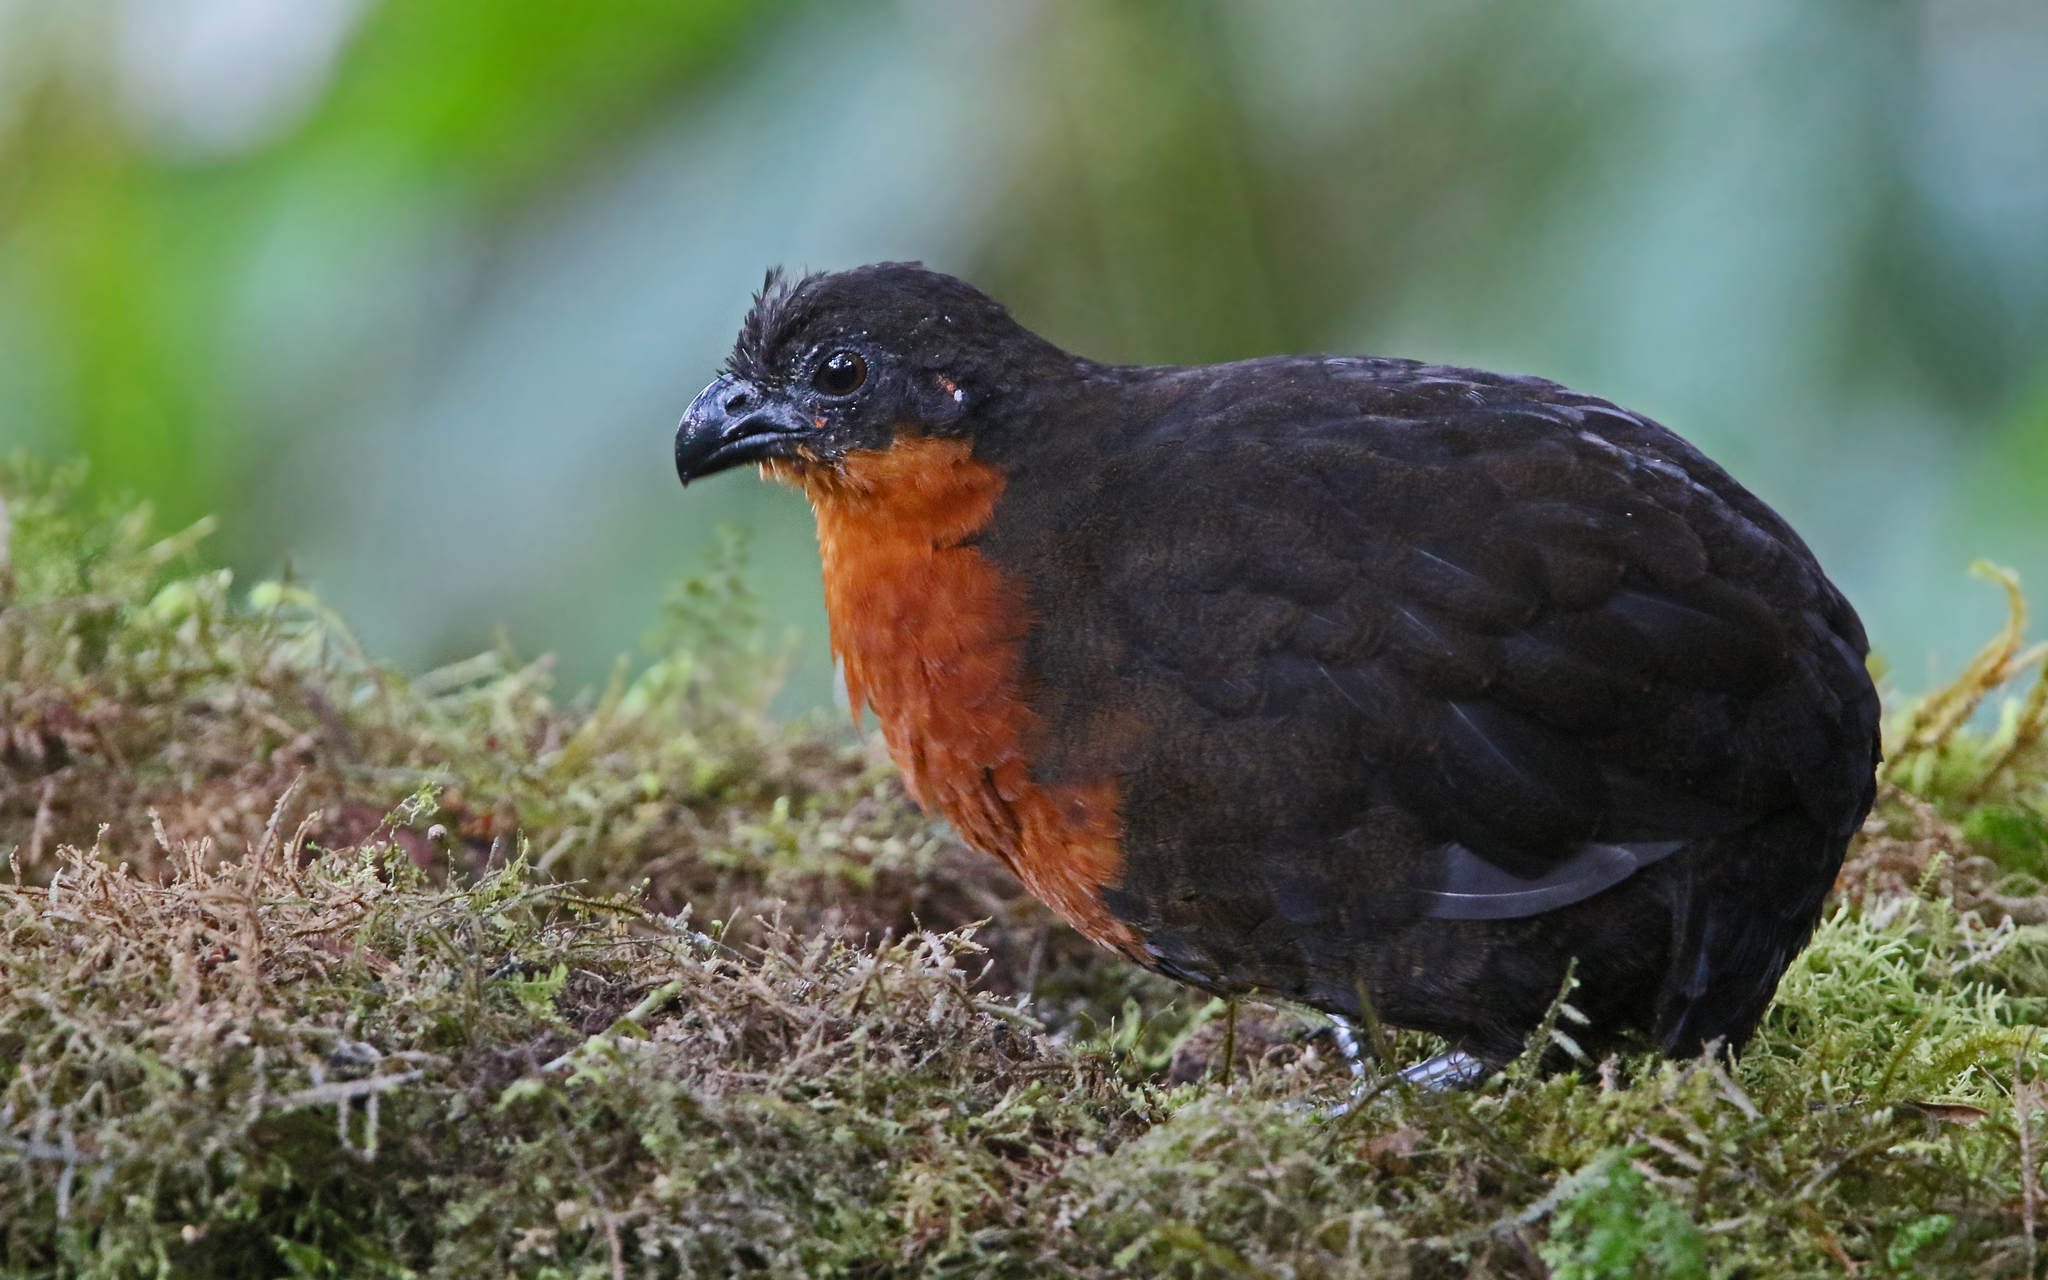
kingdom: Animalia
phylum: Chordata
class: Aves
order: Galliformes
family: Odontophoridae
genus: Odontophorus
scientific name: Odontophorus melanonotus
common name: Dark-backed wood-quail
